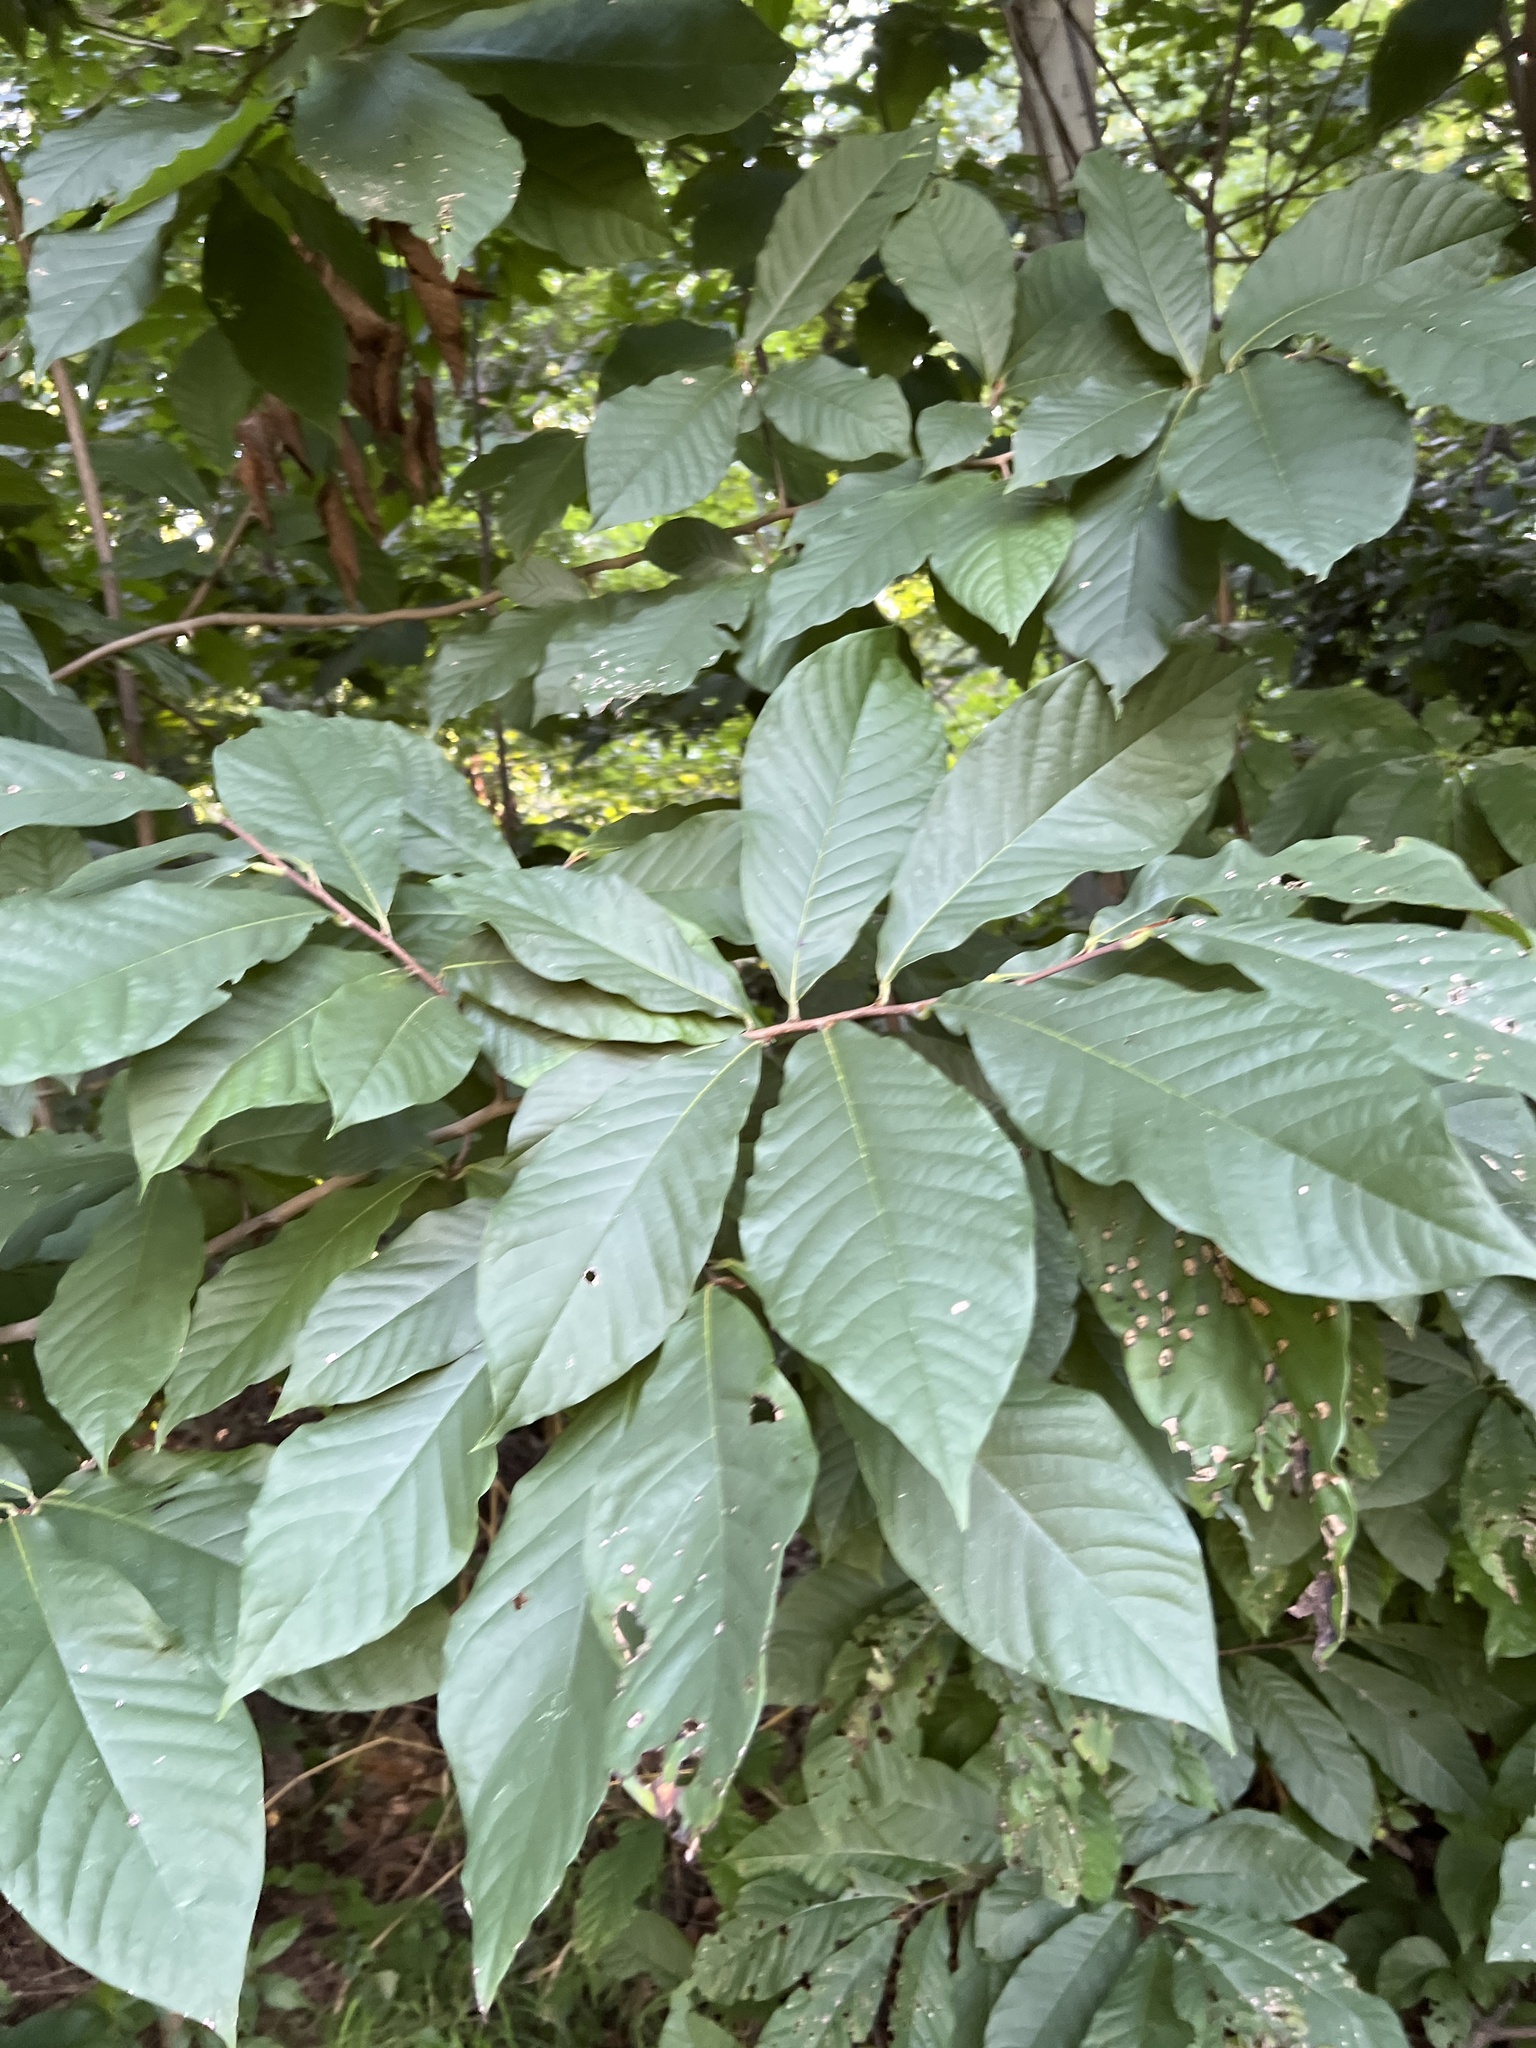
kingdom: Plantae
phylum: Tracheophyta
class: Magnoliopsida
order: Magnoliales
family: Annonaceae
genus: Asimina
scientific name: Asimina triloba
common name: Dog-banana
